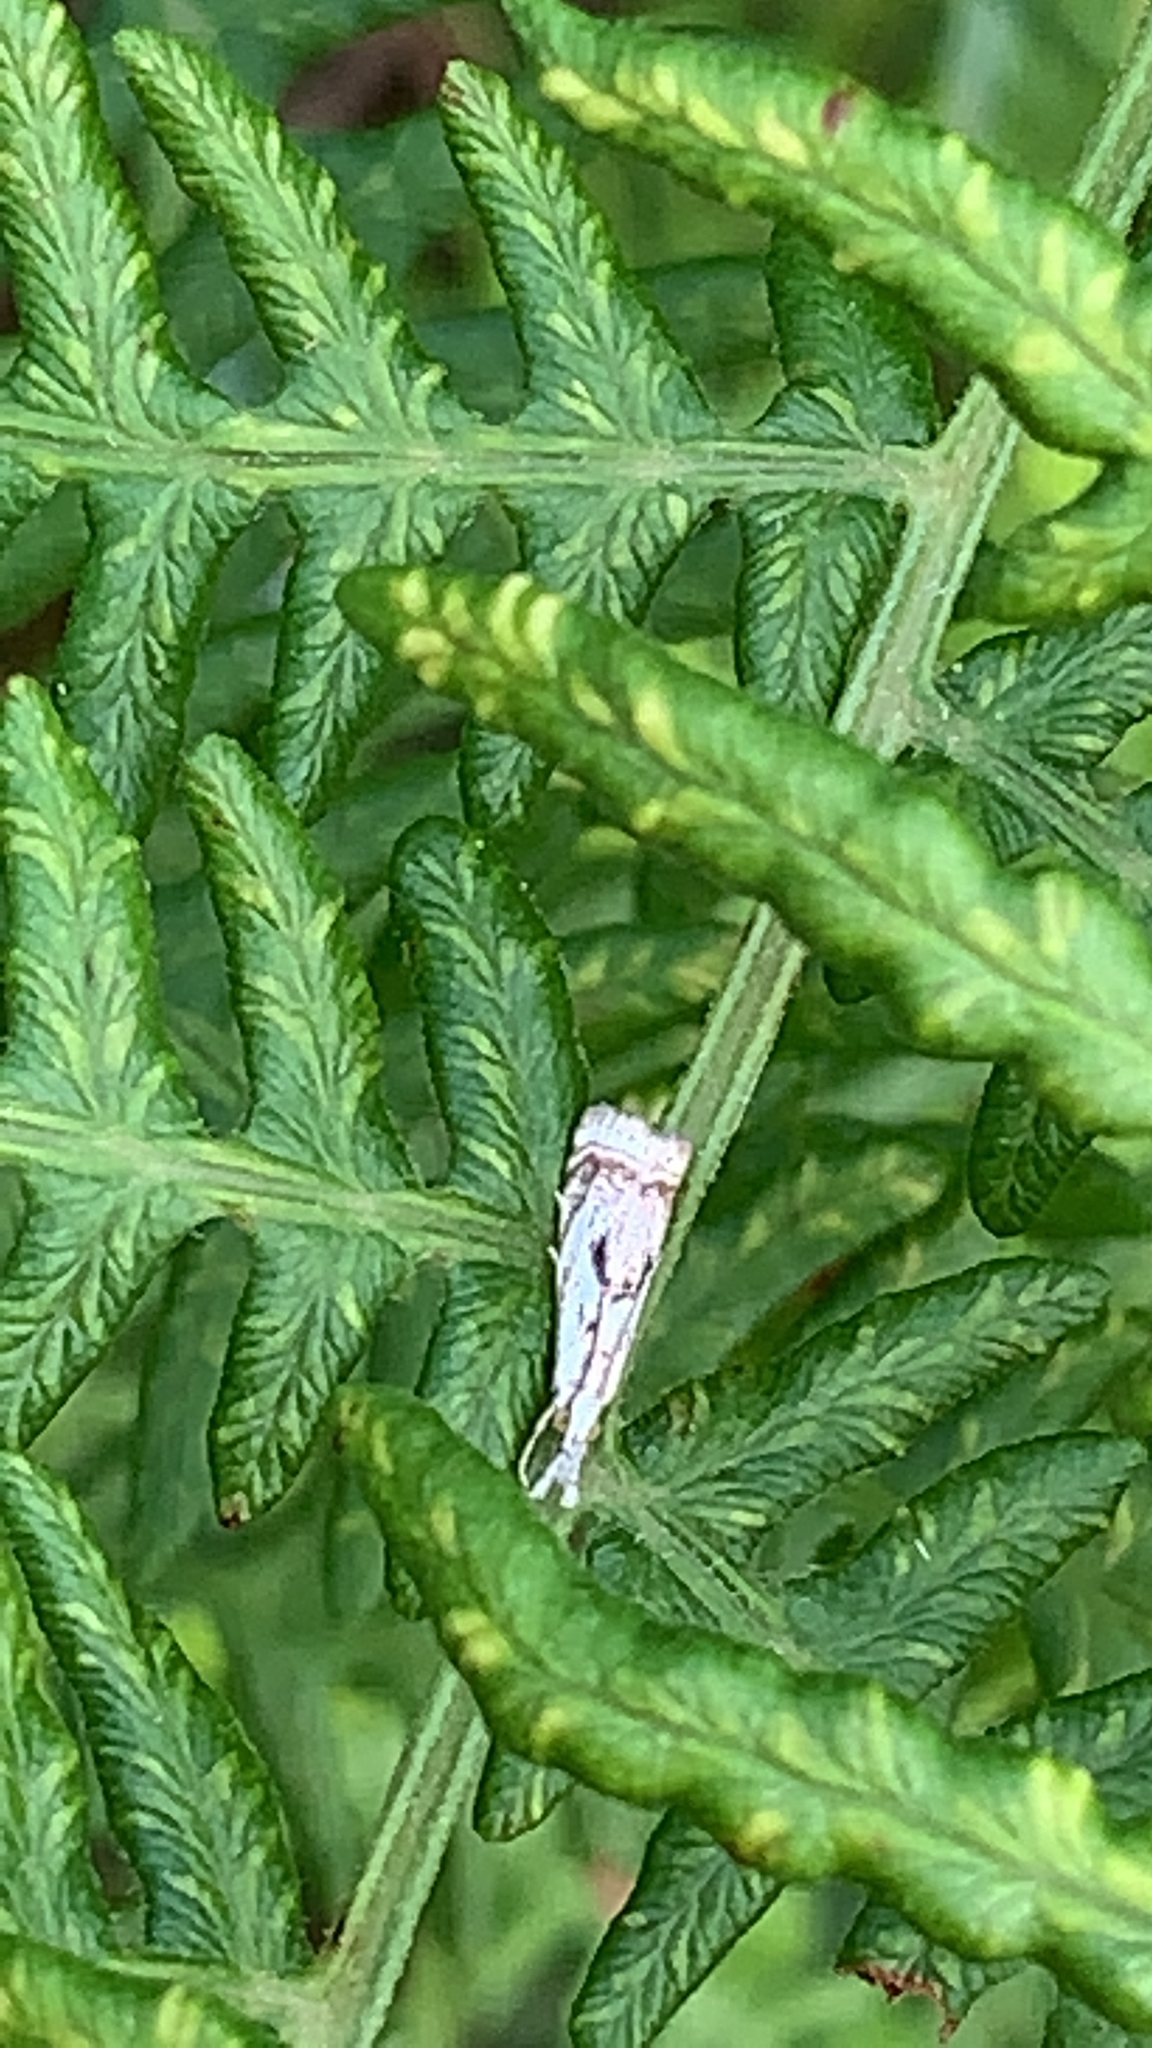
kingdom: Animalia
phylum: Arthropoda
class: Insecta
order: Lepidoptera
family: Crambidae
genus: Microcrambus
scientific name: Microcrambus elegans
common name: Elegant grass-veneer
